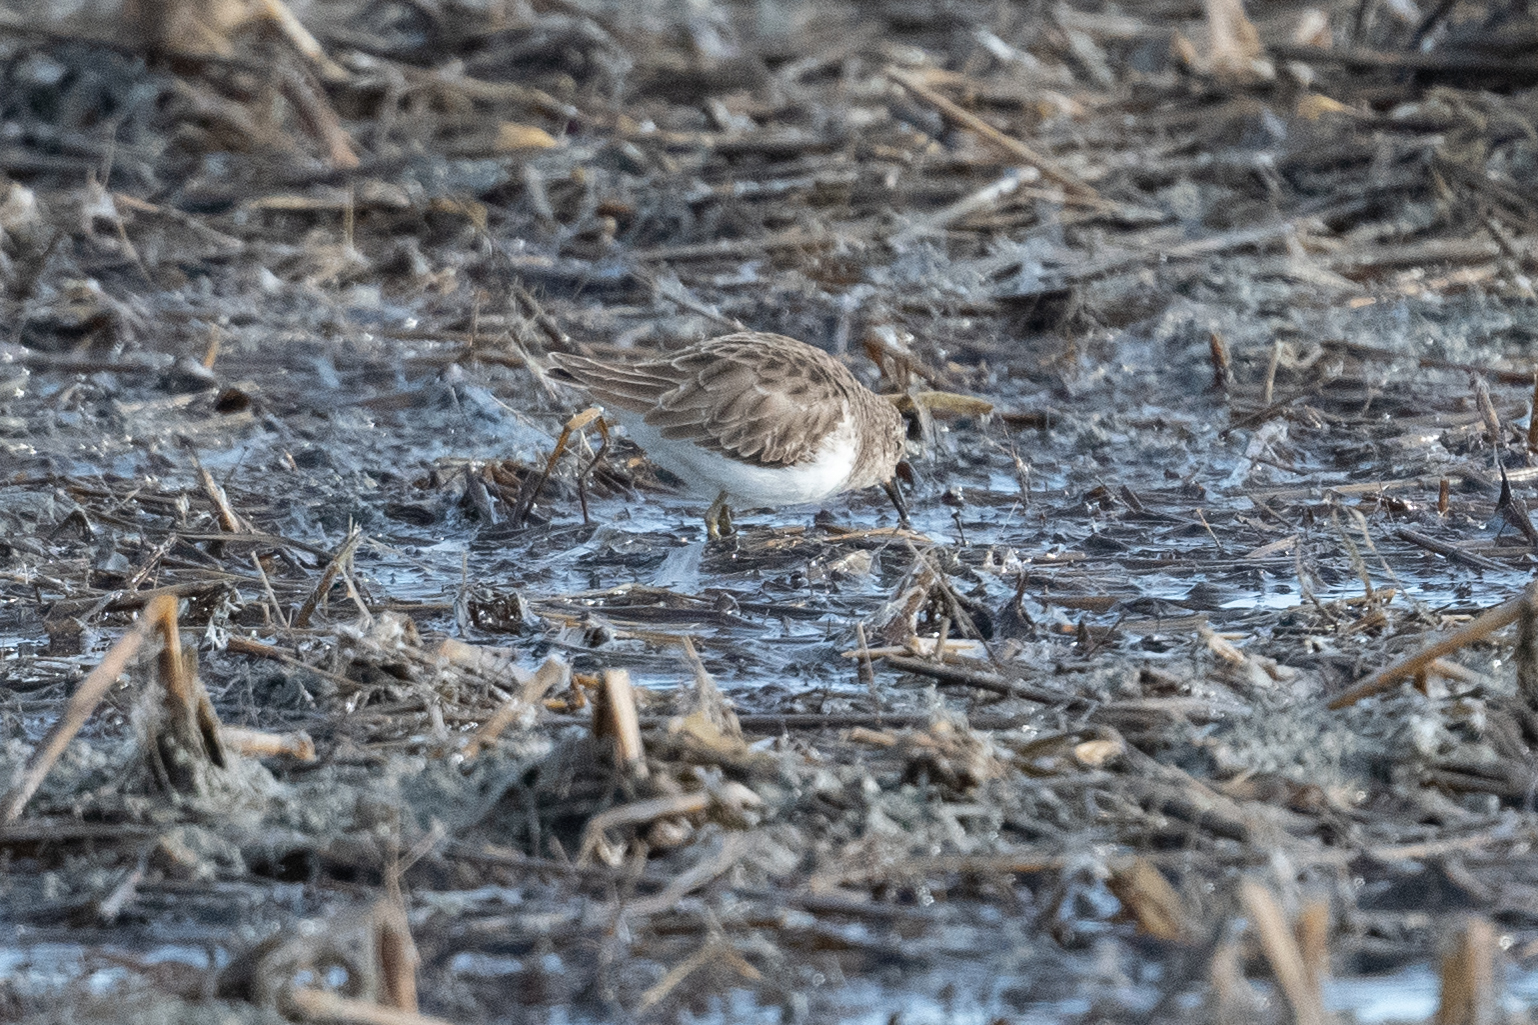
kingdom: Animalia
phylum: Chordata
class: Aves
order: Charadriiformes
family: Scolopacidae
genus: Calidris
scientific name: Calidris minutilla
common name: Least sandpiper
